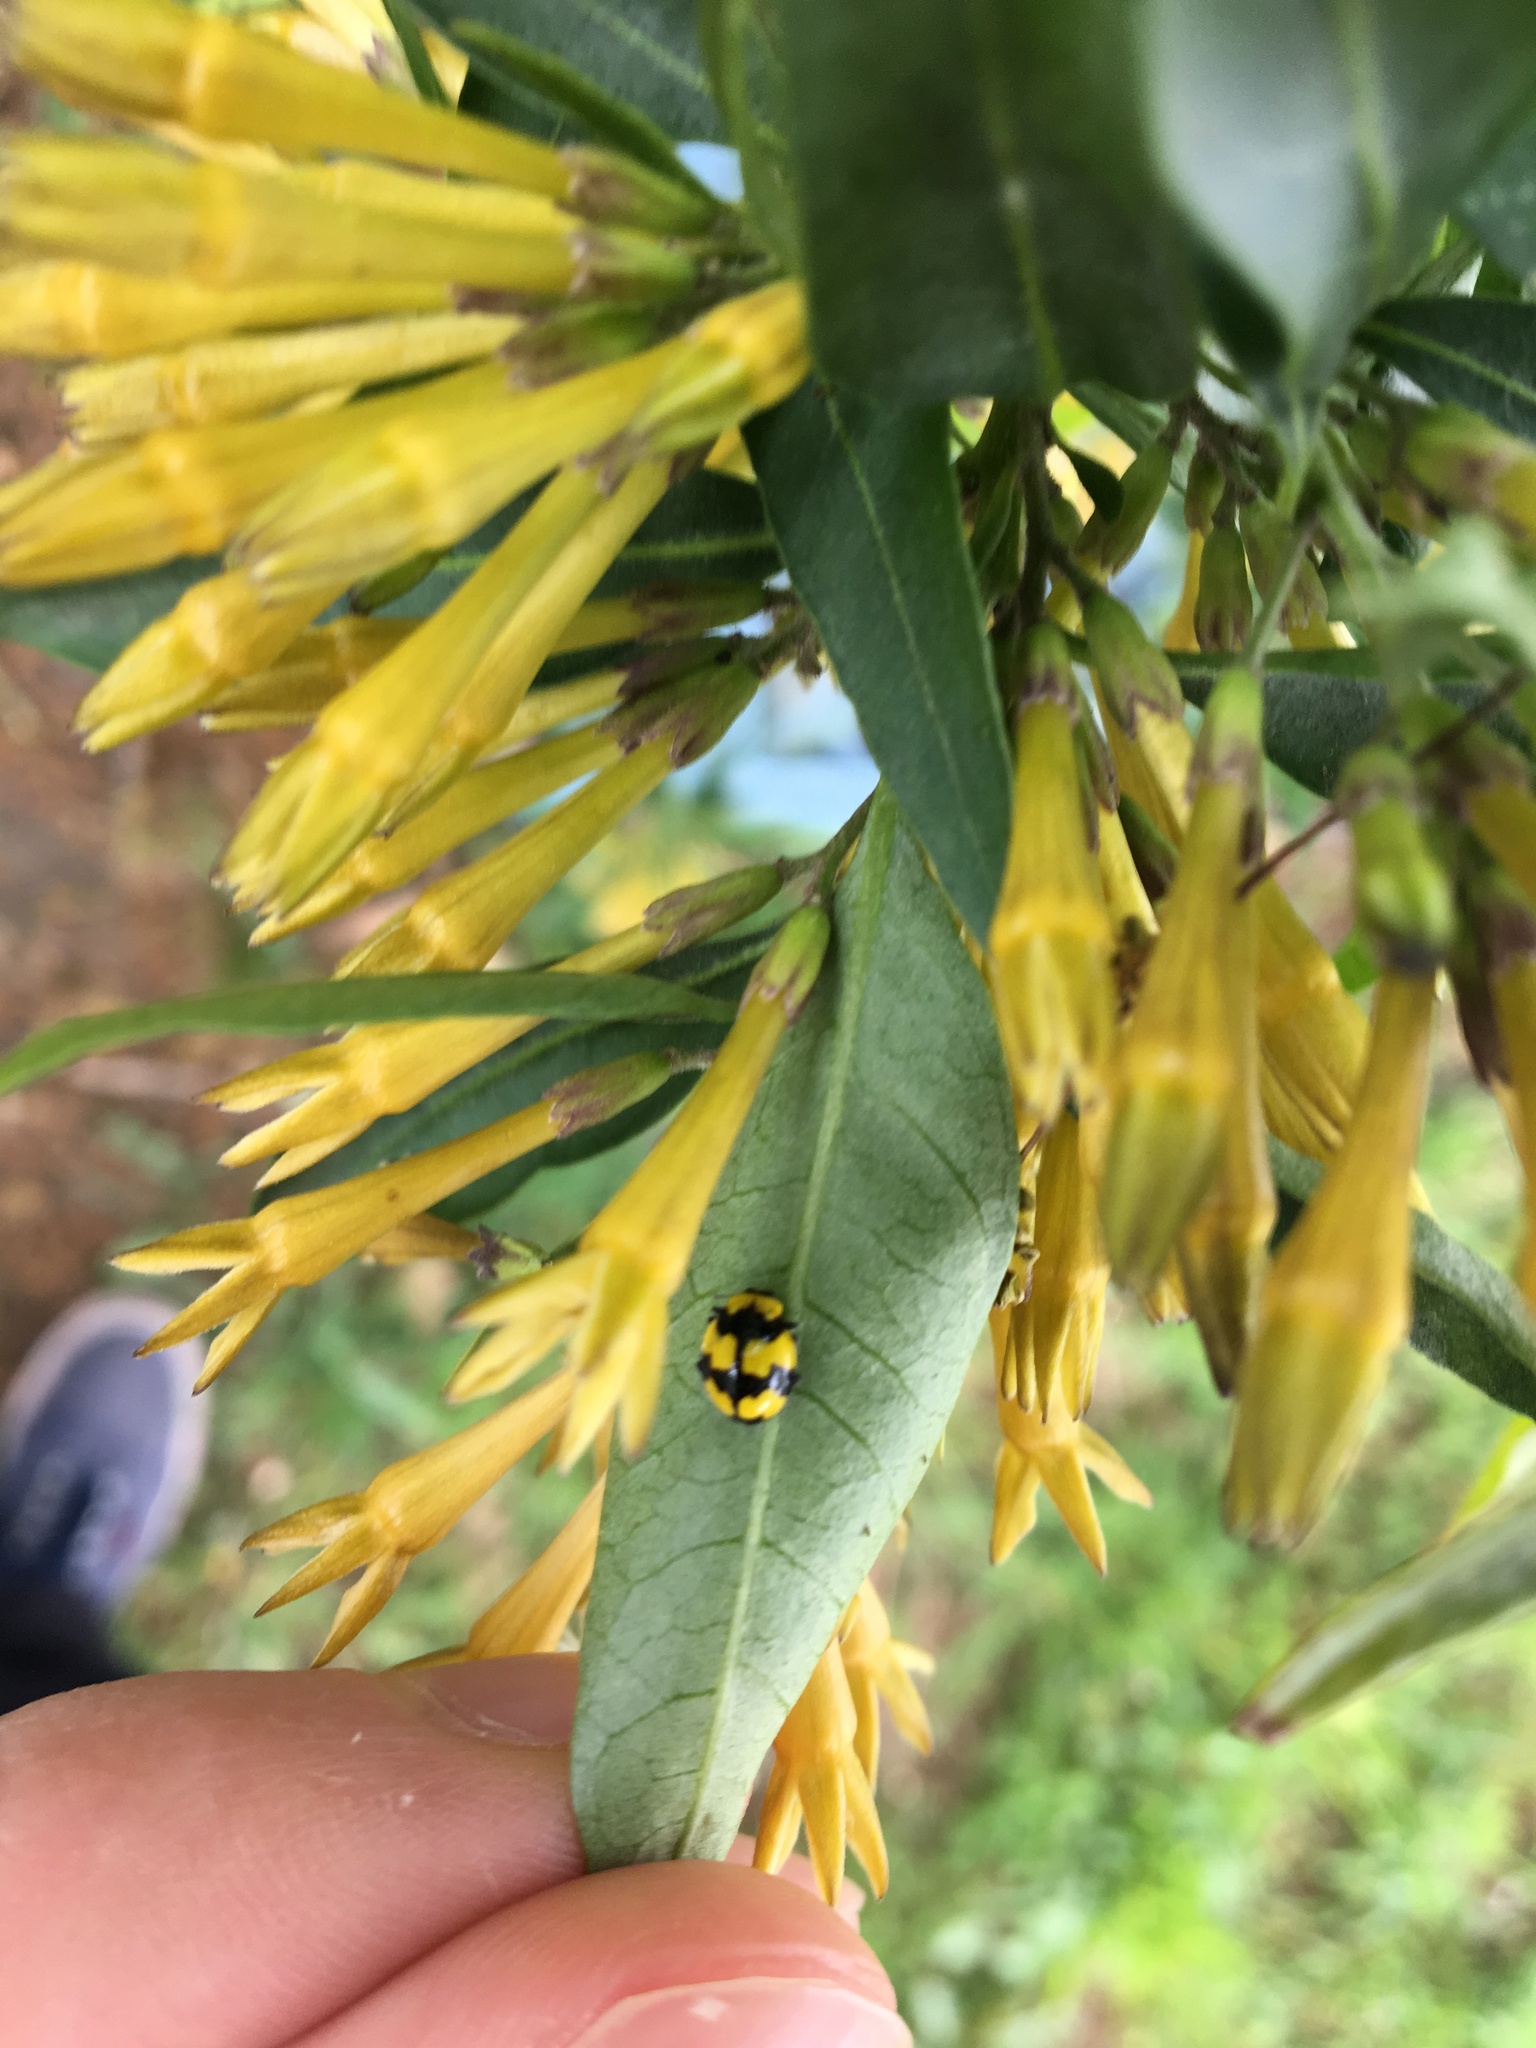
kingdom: Animalia
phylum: Arthropoda
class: Insecta
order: Coleoptera
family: Coccinellidae
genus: Illeis
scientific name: Illeis galbula
